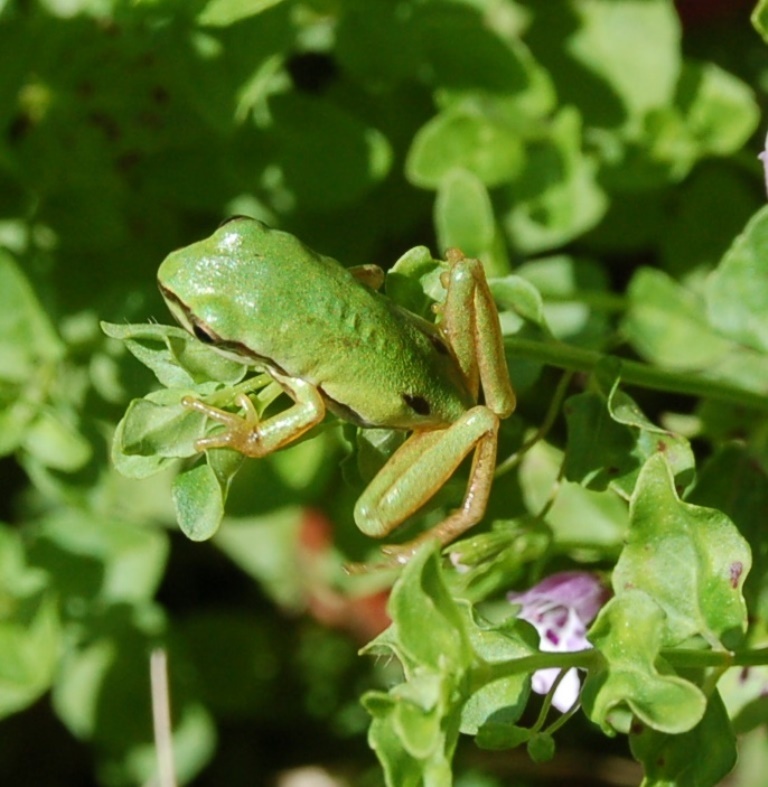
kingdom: Animalia
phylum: Chordata
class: Amphibia
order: Anura
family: Hylidae
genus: Dryophytes
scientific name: Dryophytes walkeri
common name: Walker's treefrog
